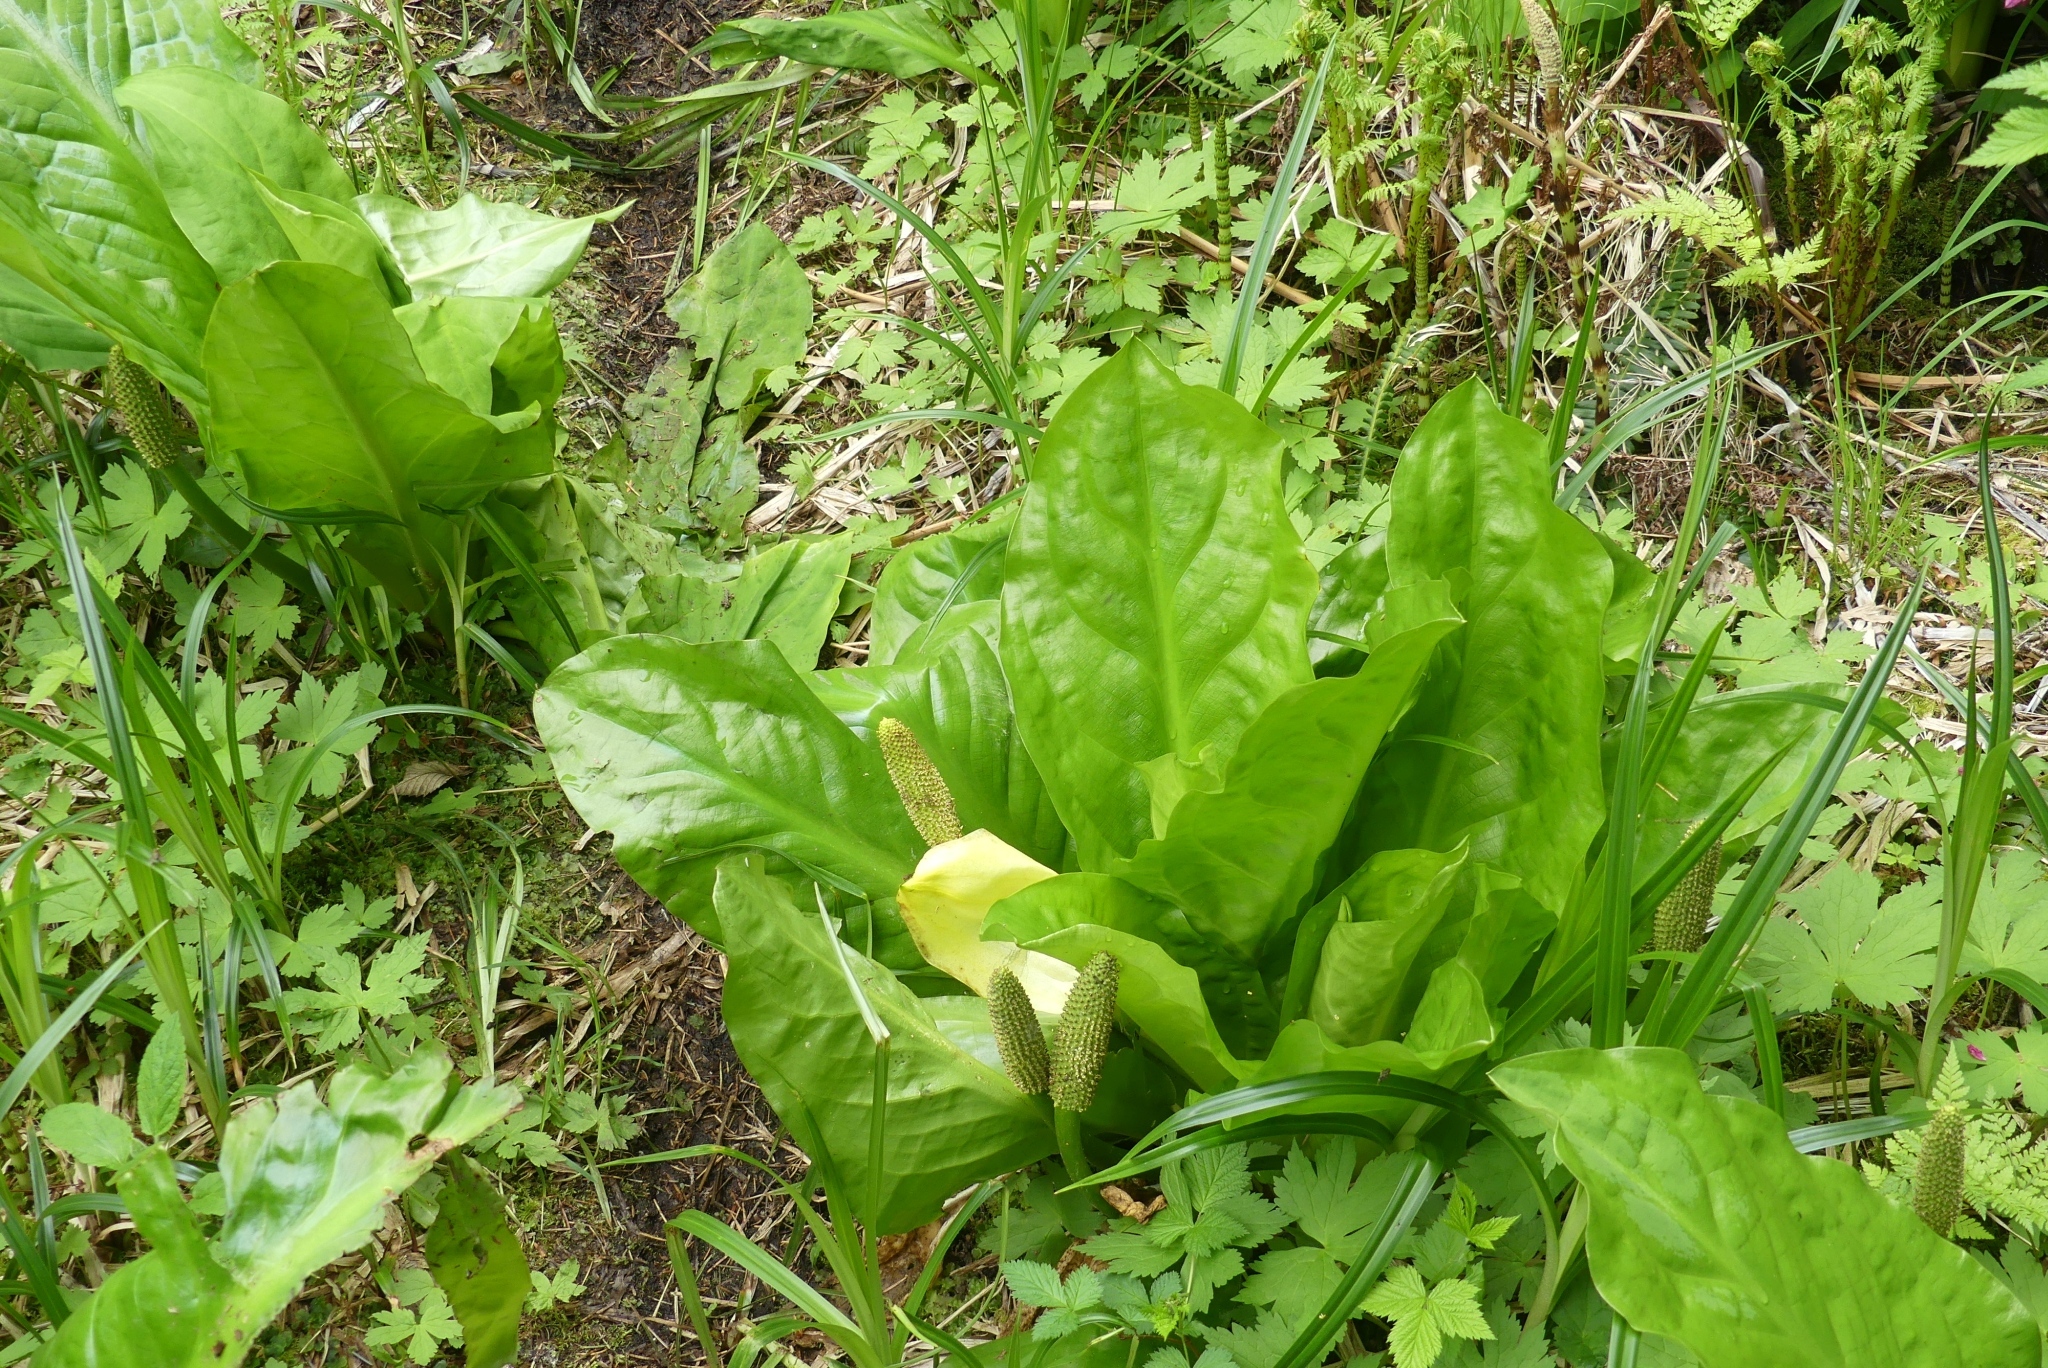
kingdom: Plantae
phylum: Tracheophyta
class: Liliopsida
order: Alismatales
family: Araceae
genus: Lysichiton
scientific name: Lysichiton americanus
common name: American skunk cabbage
